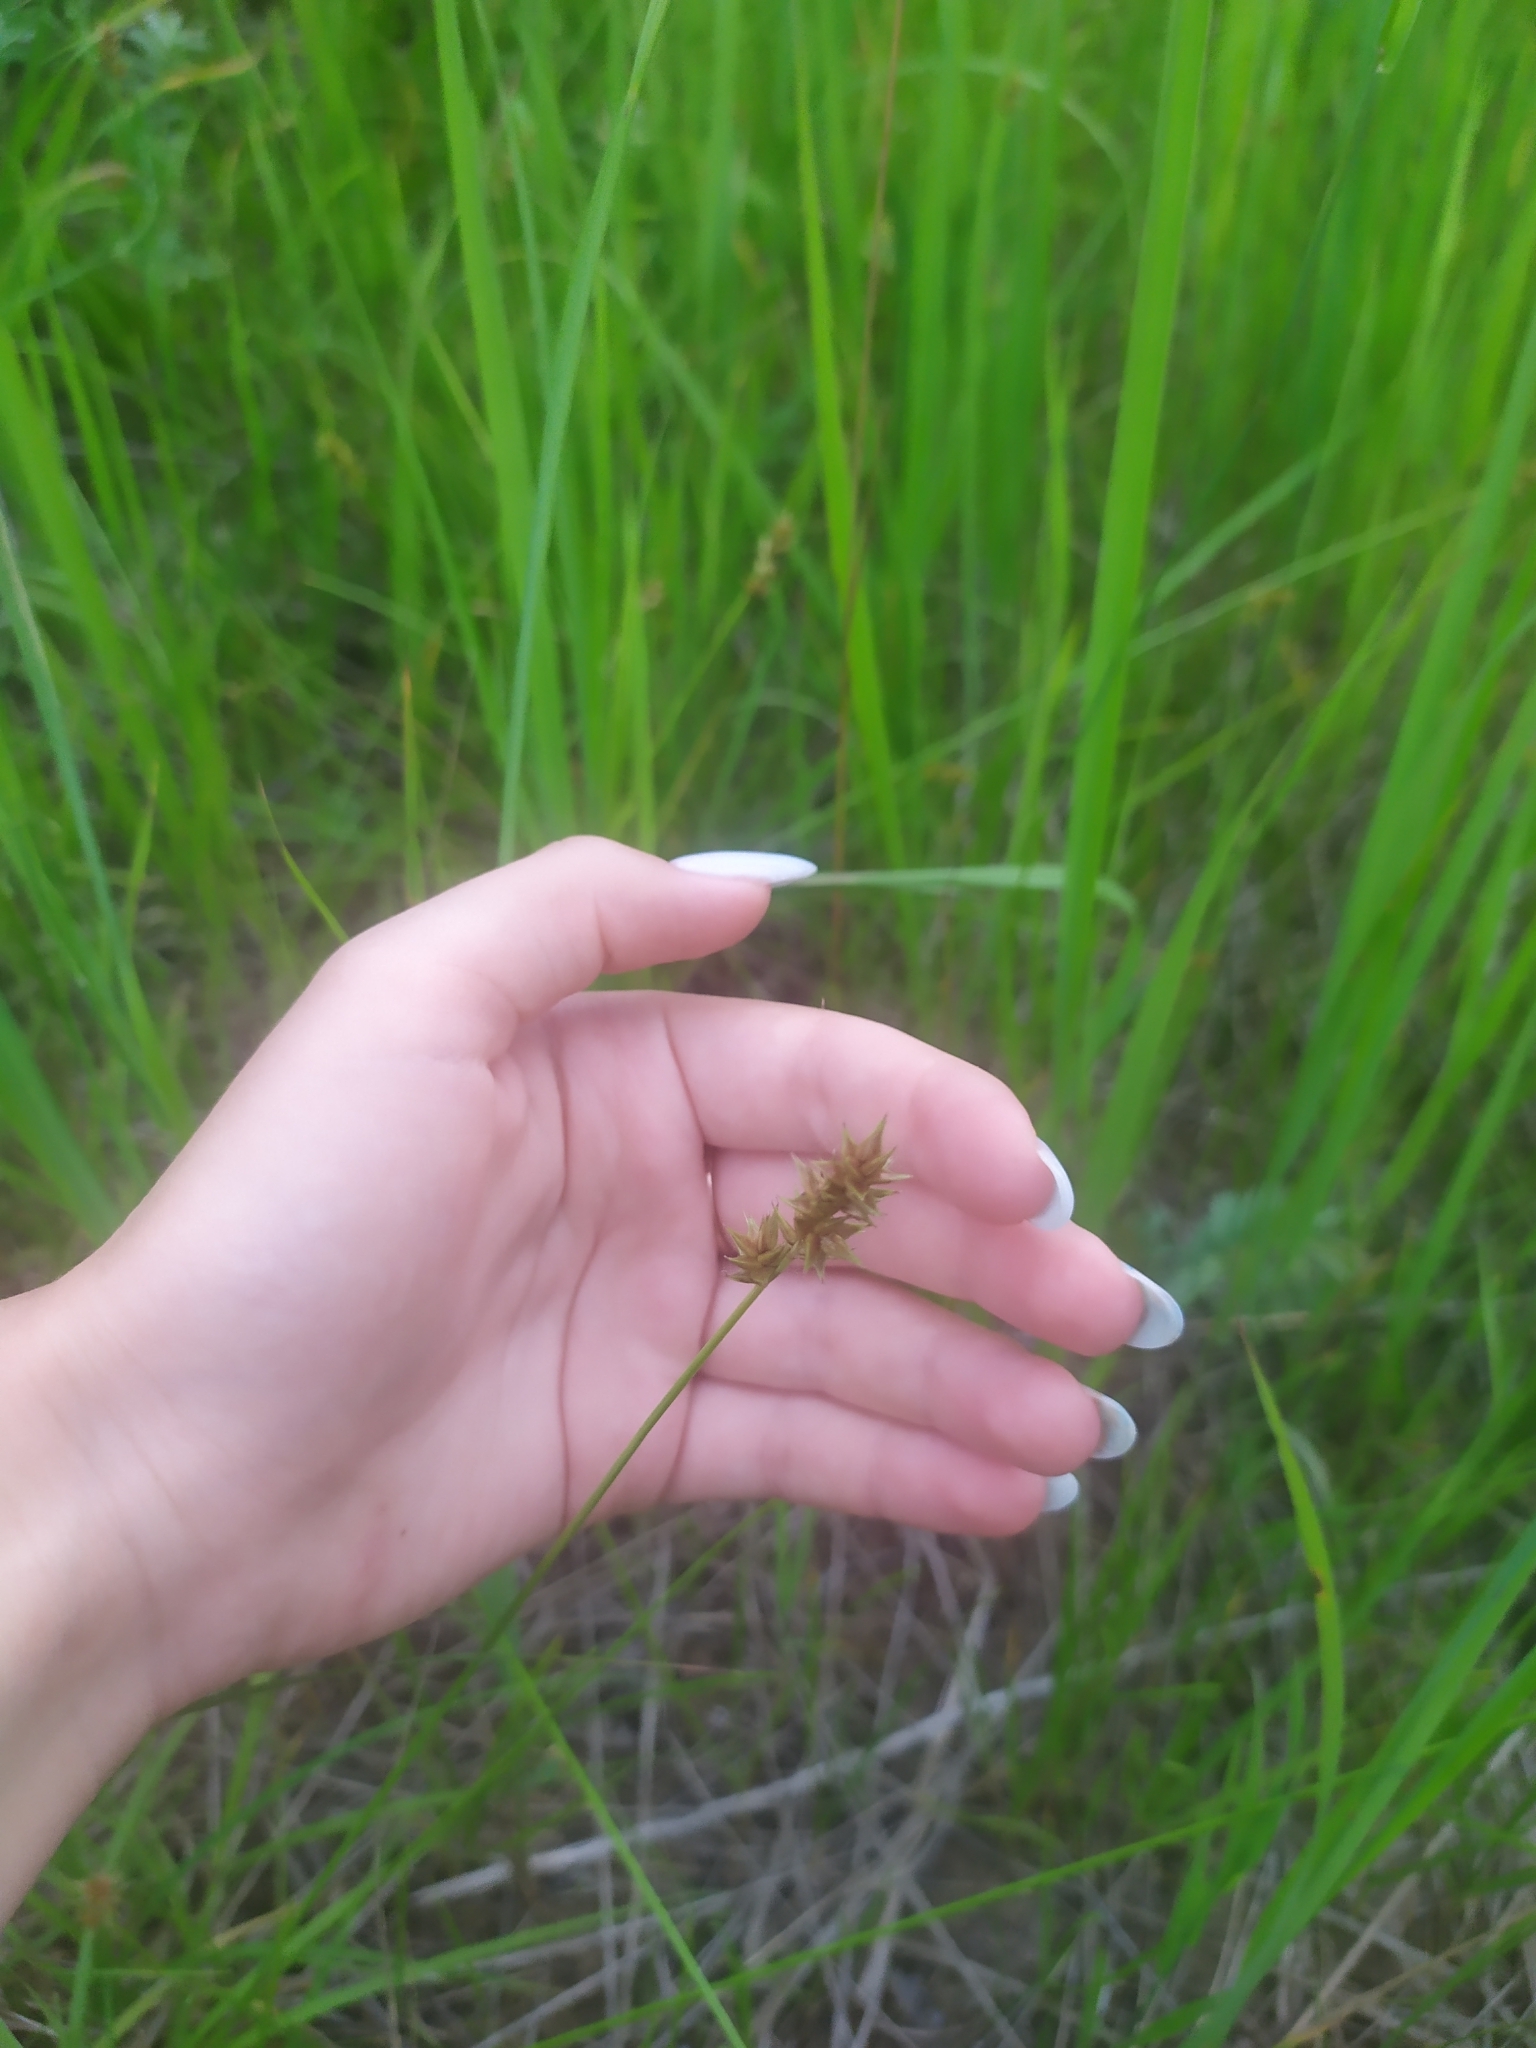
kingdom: Plantae
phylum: Tracheophyta
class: Liliopsida
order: Poales
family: Cyperaceae
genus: Carex
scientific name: Carex spicata
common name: Spiked sedge
